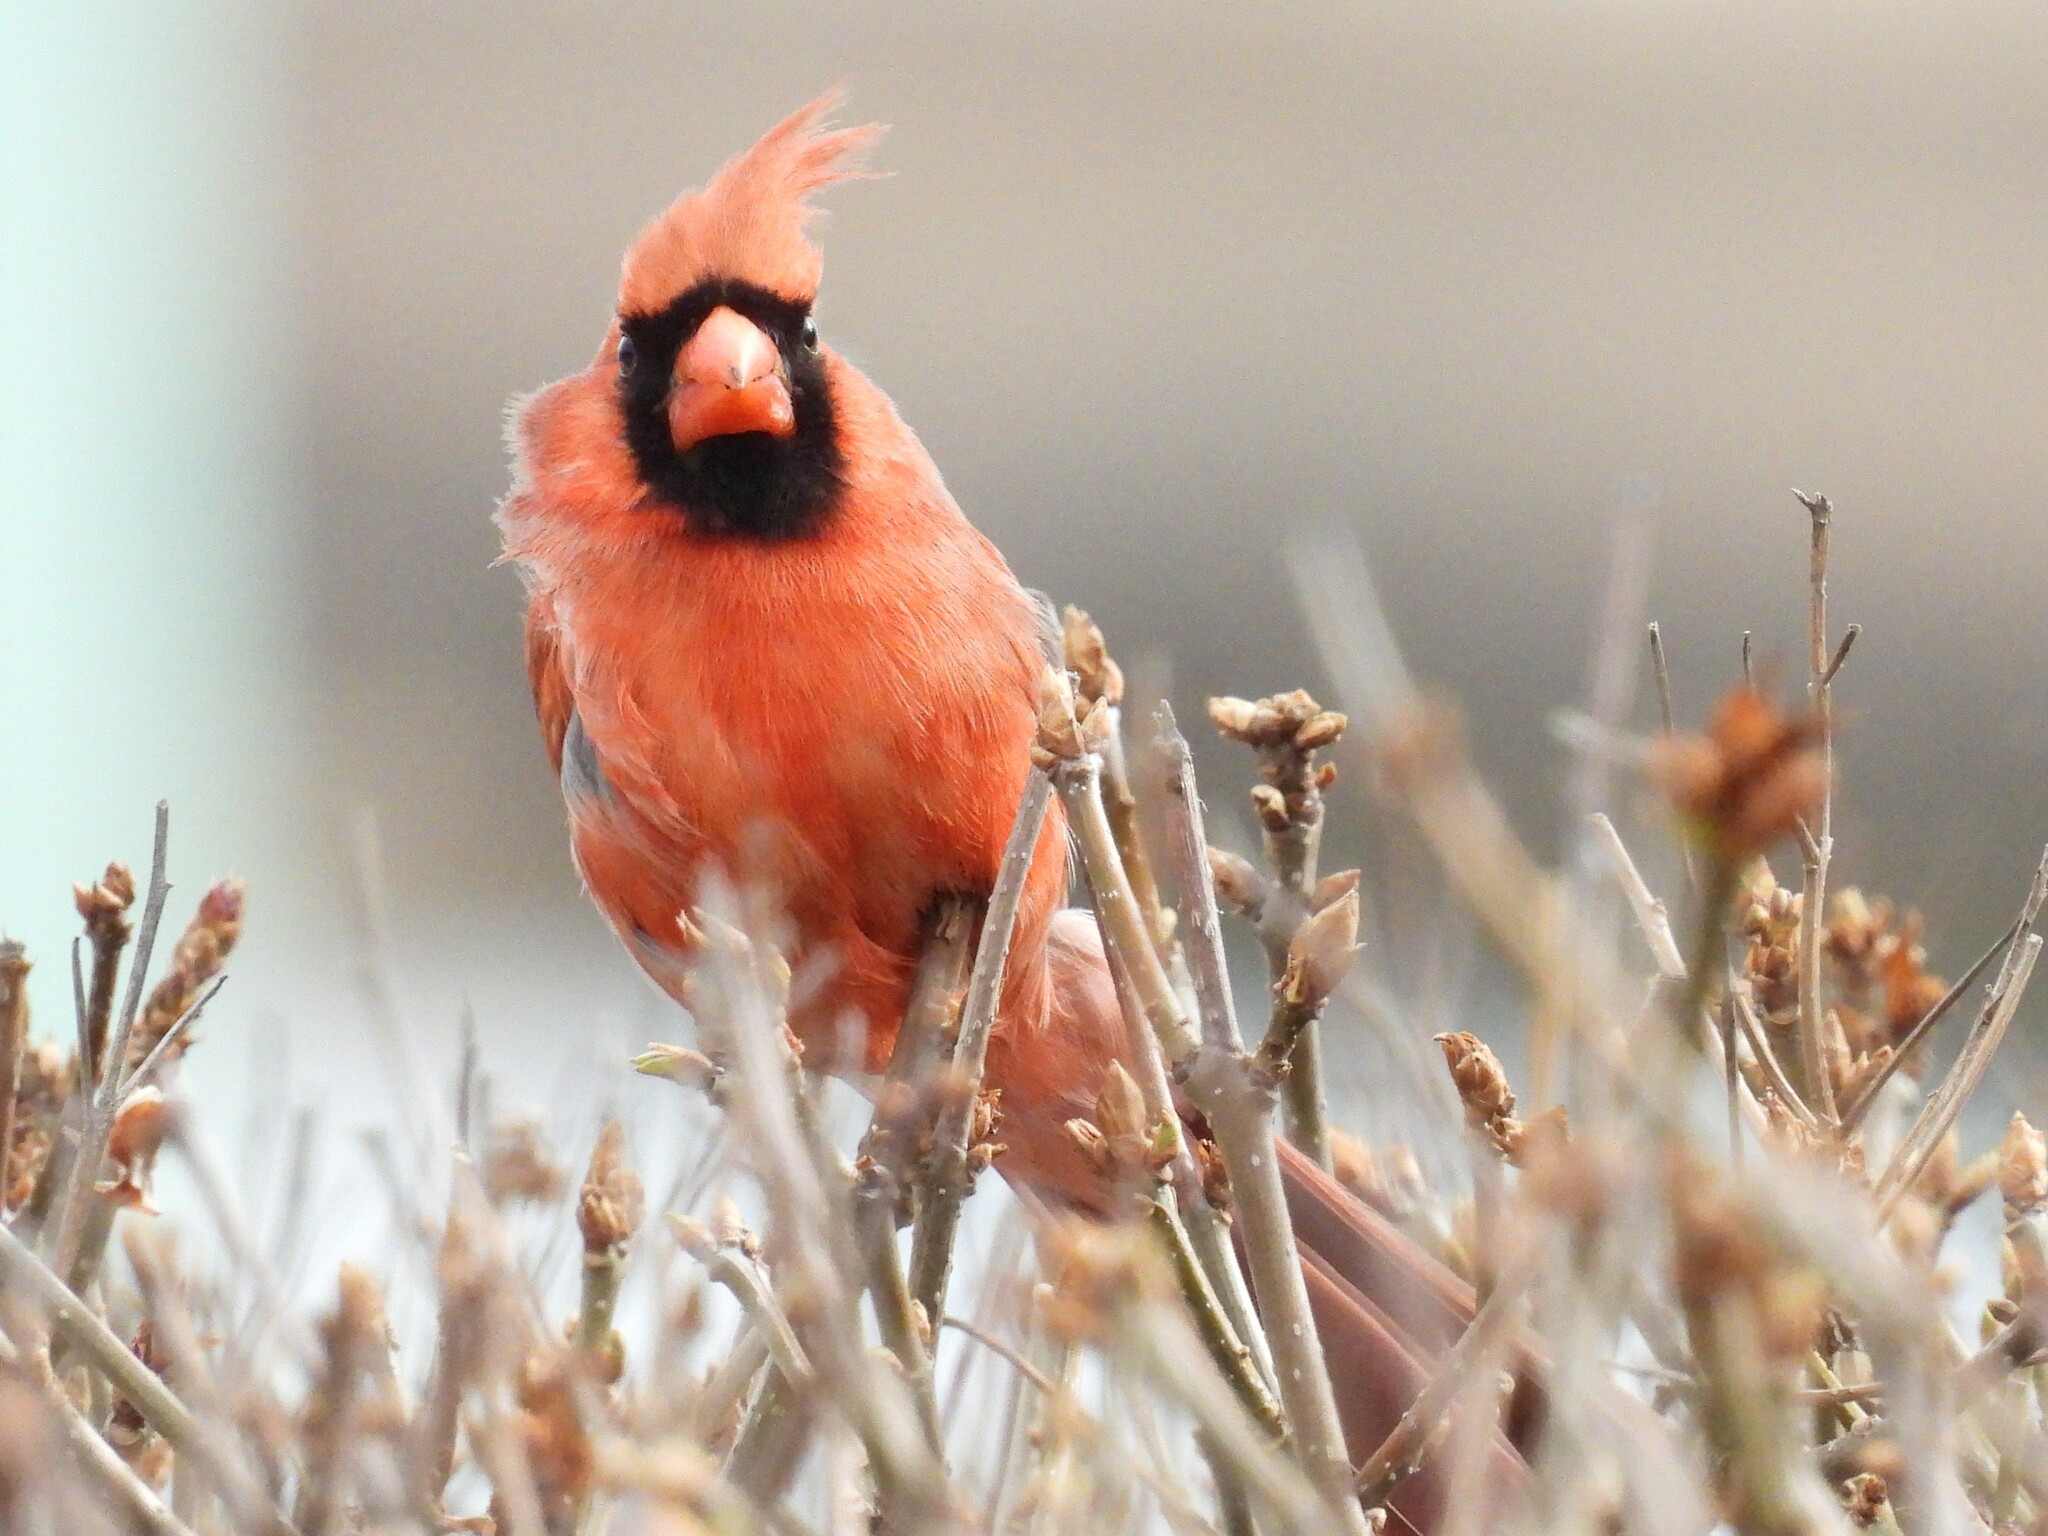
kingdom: Animalia
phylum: Chordata
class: Aves
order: Passeriformes
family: Cardinalidae
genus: Cardinalis
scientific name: Cardinalis cardinalis
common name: Northern cardinal
